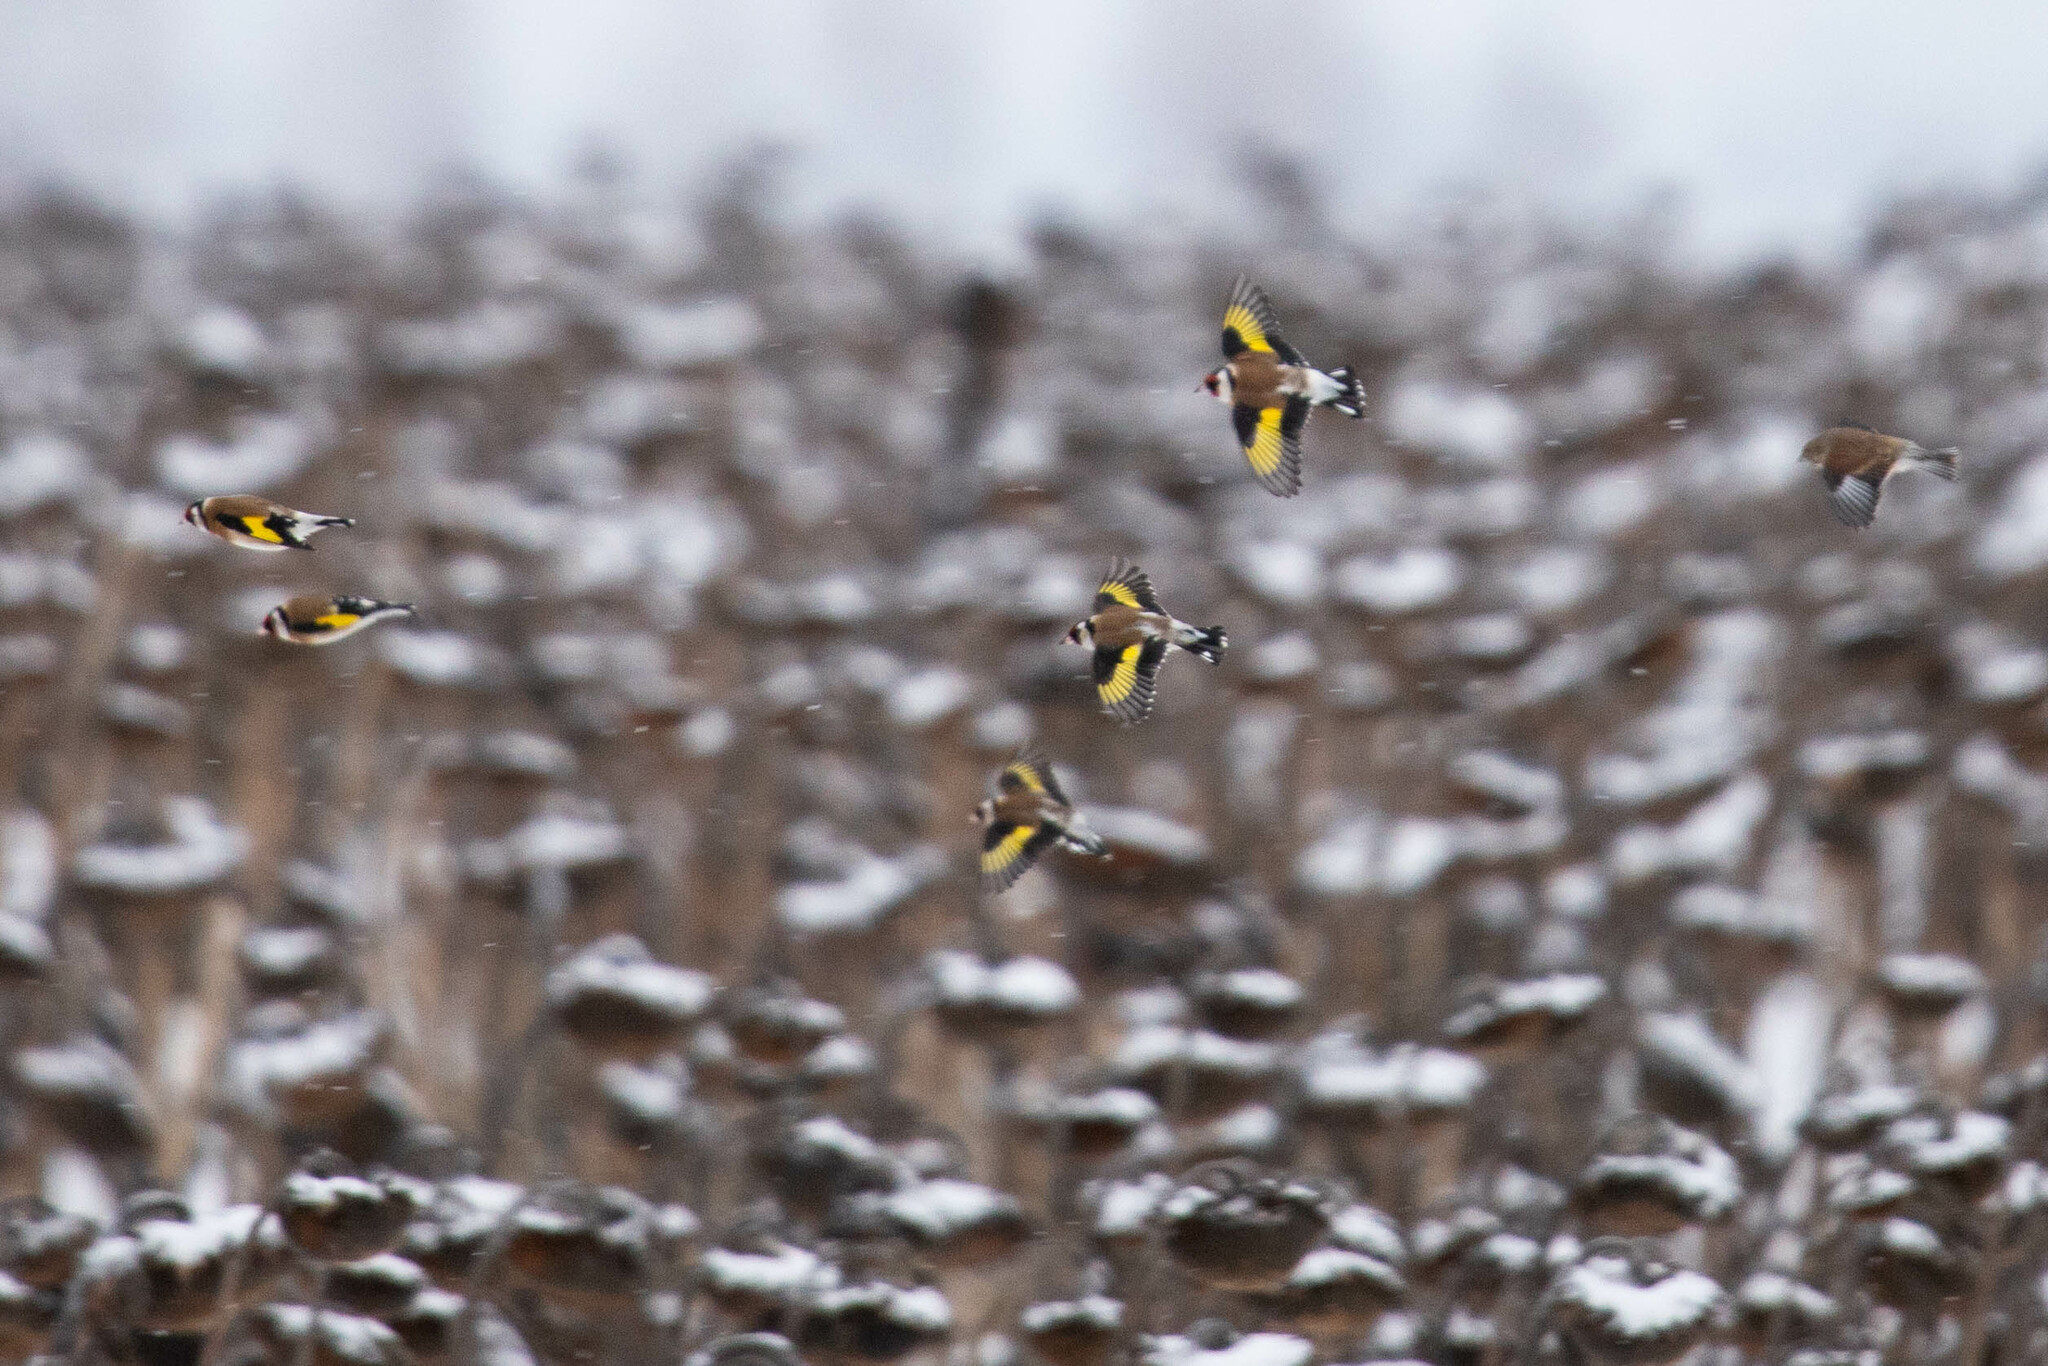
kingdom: Animalia
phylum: Chordata
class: Aves
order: Passeriformes
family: Fringillidae
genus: Carduelis
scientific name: Carduelis carduelis
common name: European goldfinch
